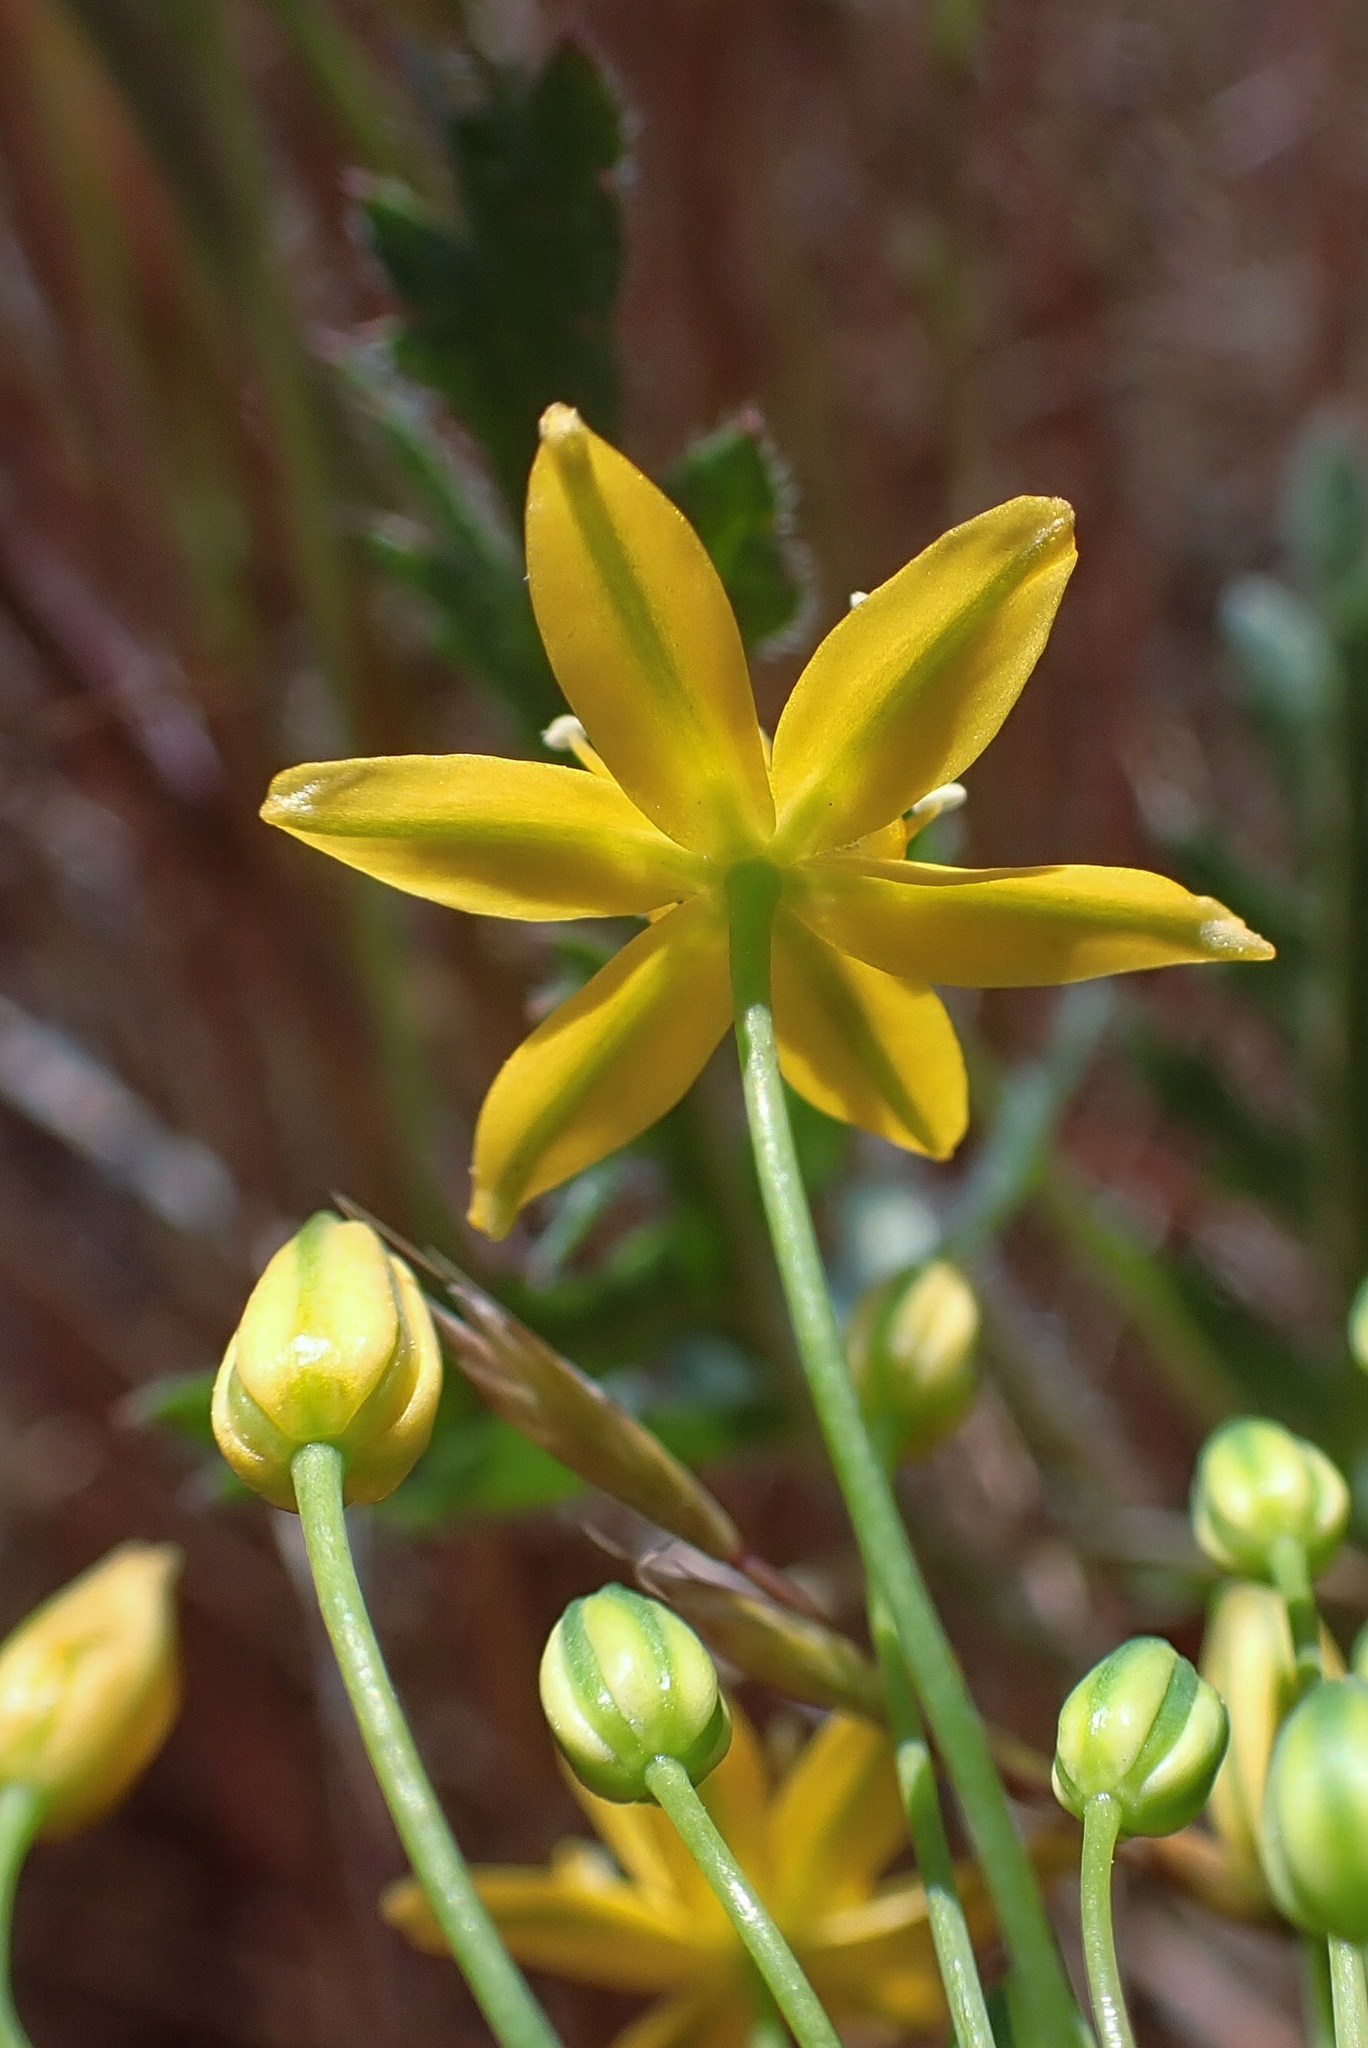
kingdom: Plantae
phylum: Tracheophyta
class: Liliopsida
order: Asparagales
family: Asparagaceae
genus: Bloomeria
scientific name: Bloomeria clevelandii
